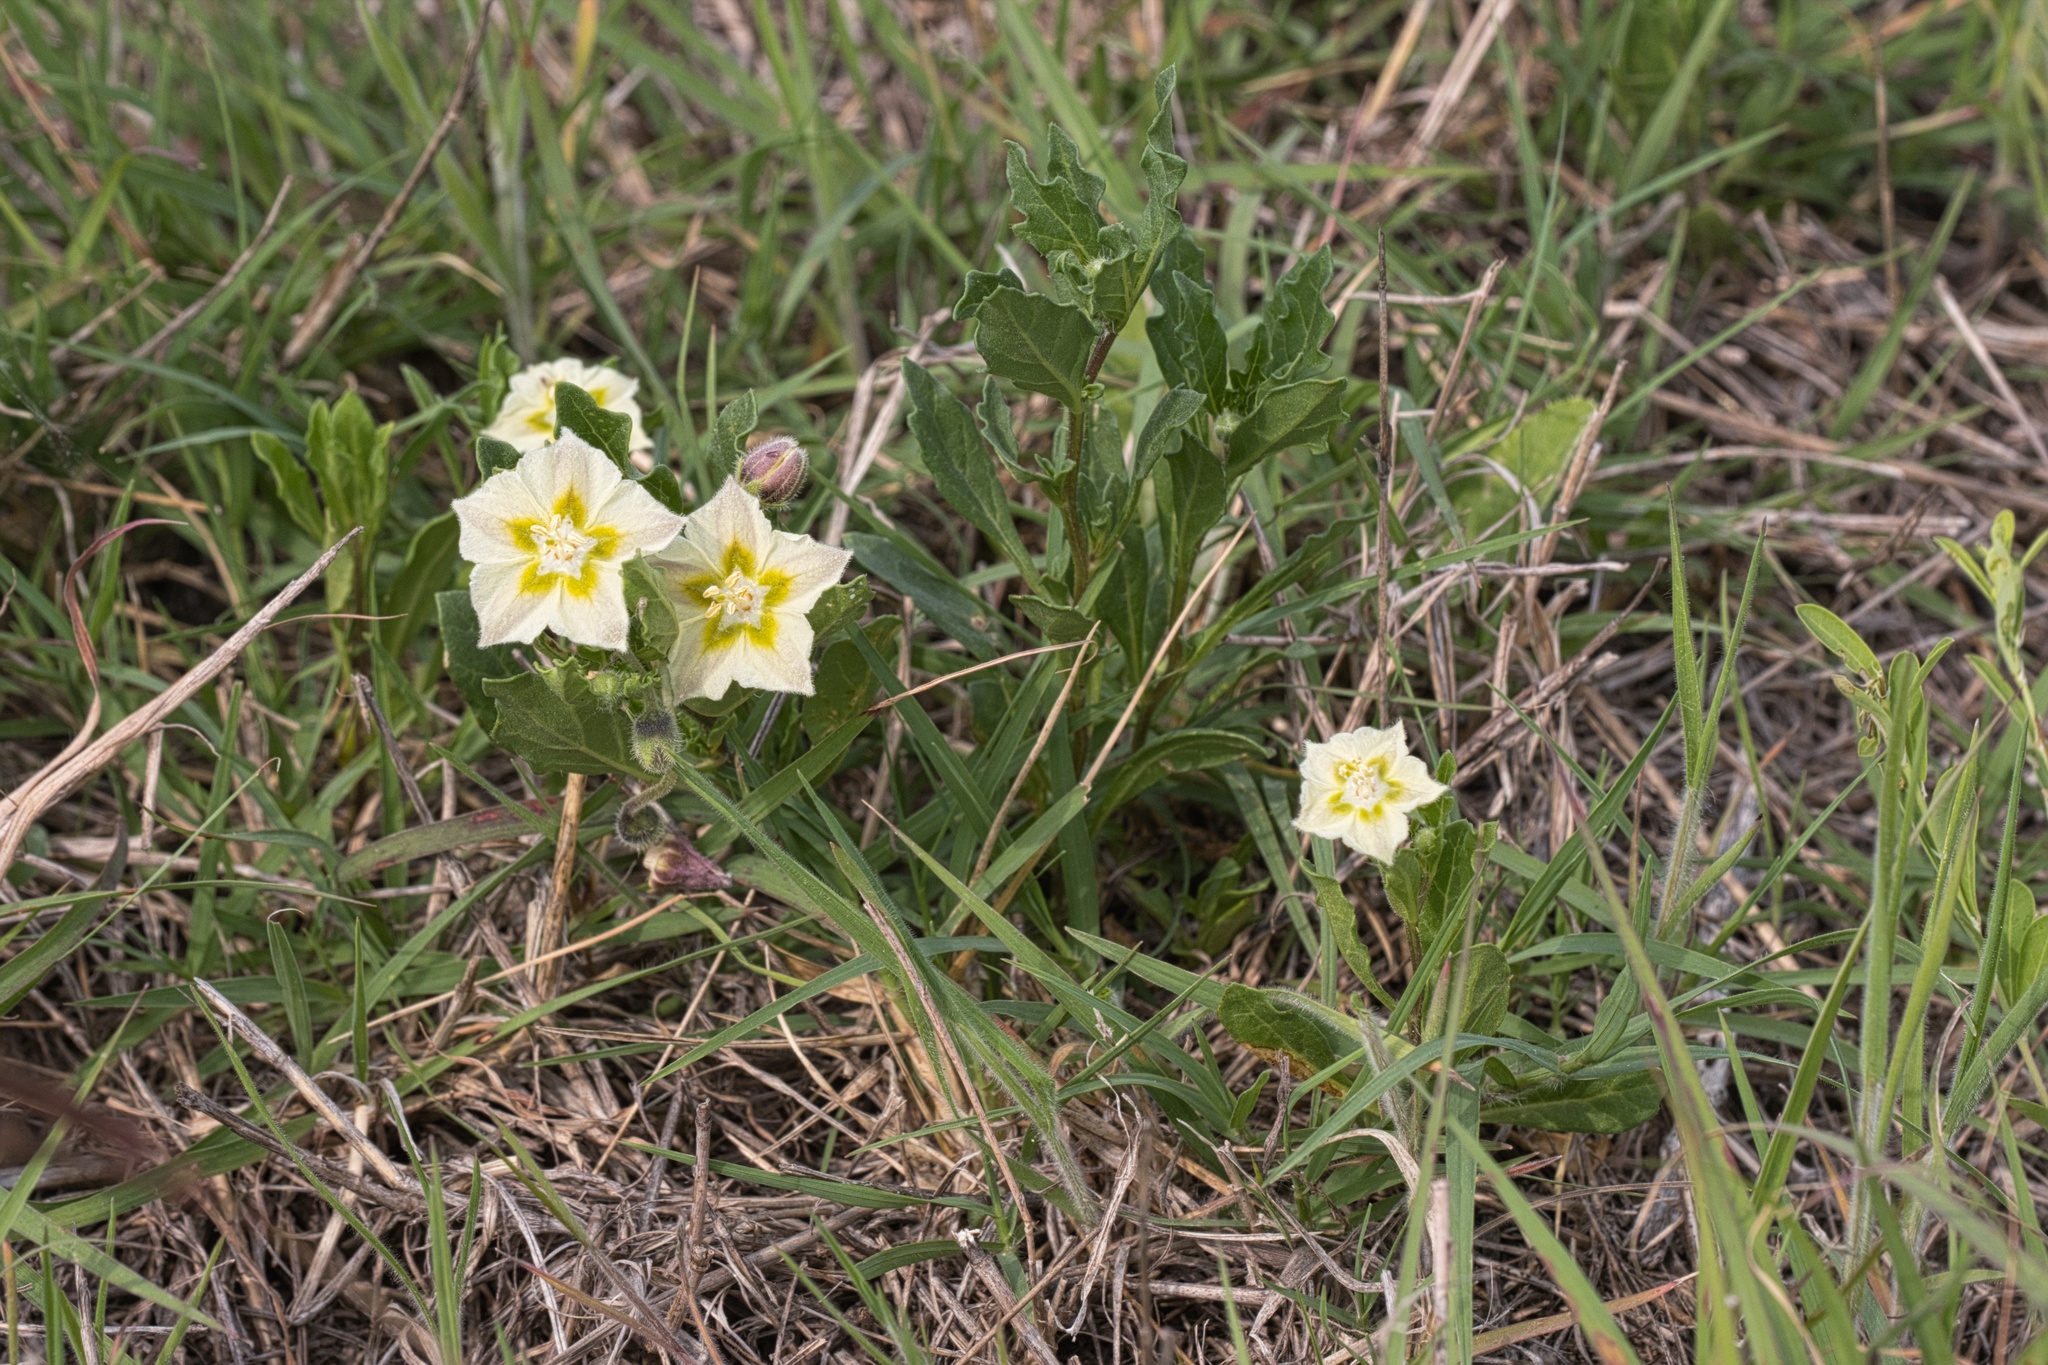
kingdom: Plantae
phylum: Tracheophyta
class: Magnoliopsida
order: Solanales
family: Solanaceae
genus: Chamaesaracha
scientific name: Chamaesaracha edwardsiana
